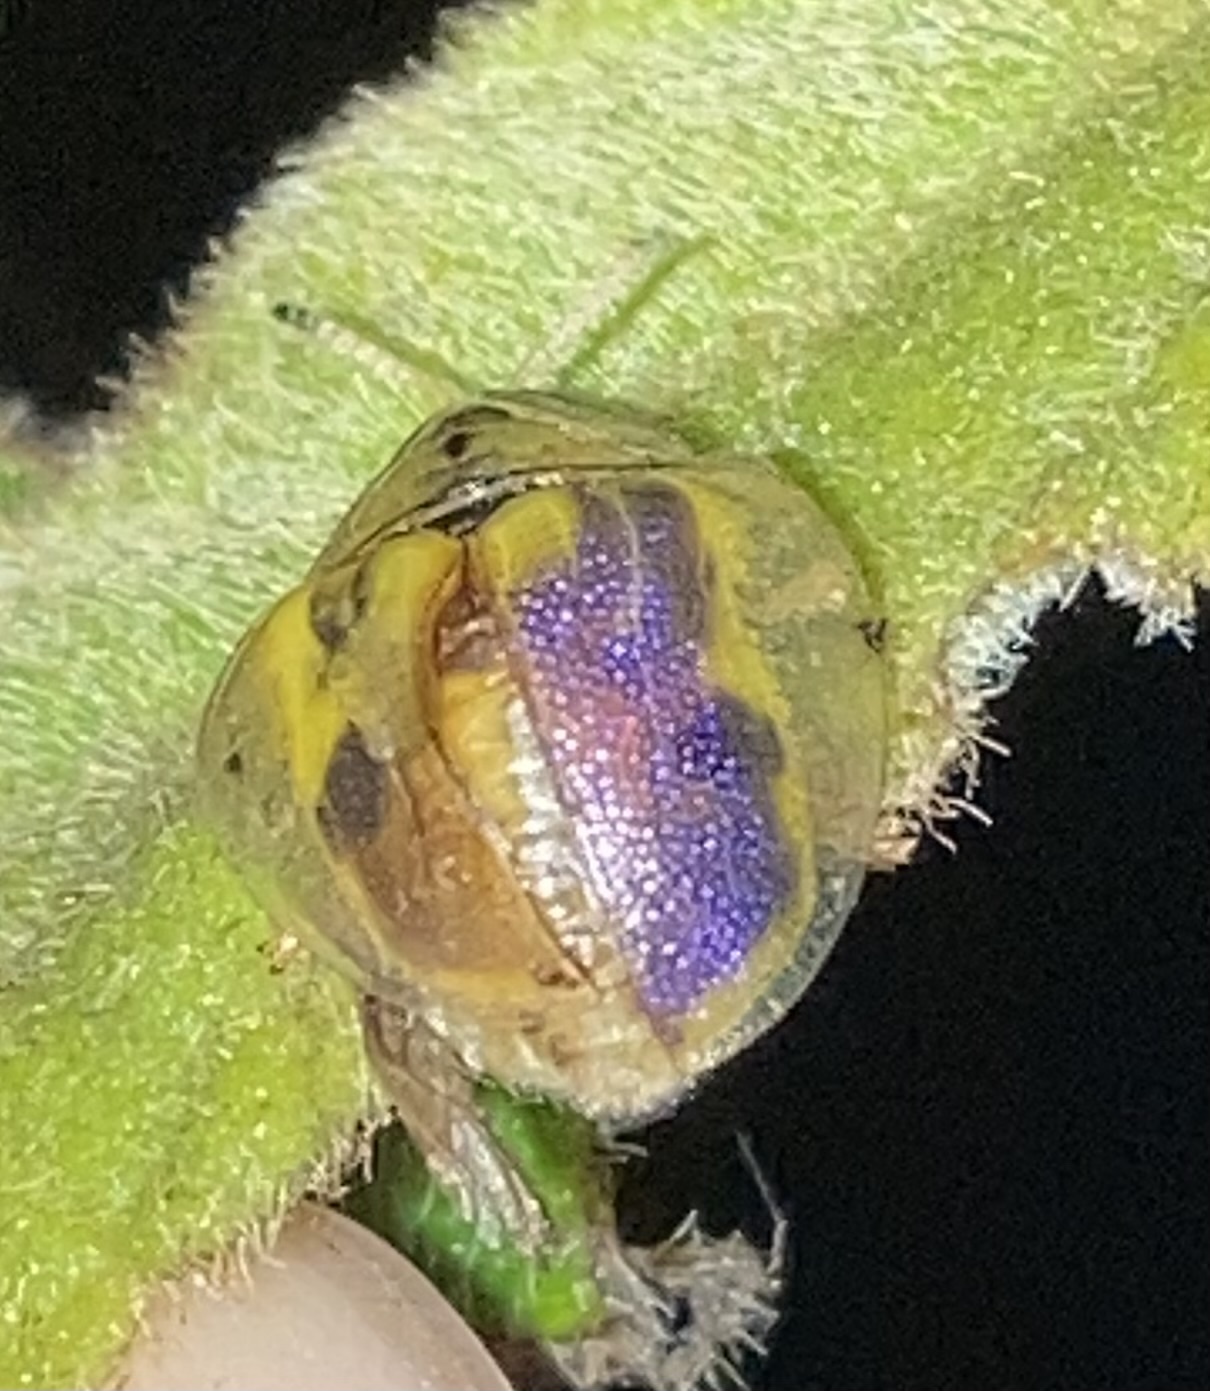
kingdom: Animalia
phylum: Arthropoda
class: Insecta
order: Coleoptera
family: Chrysomelidae
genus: Eurypepla
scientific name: Eurypepla calochroma
